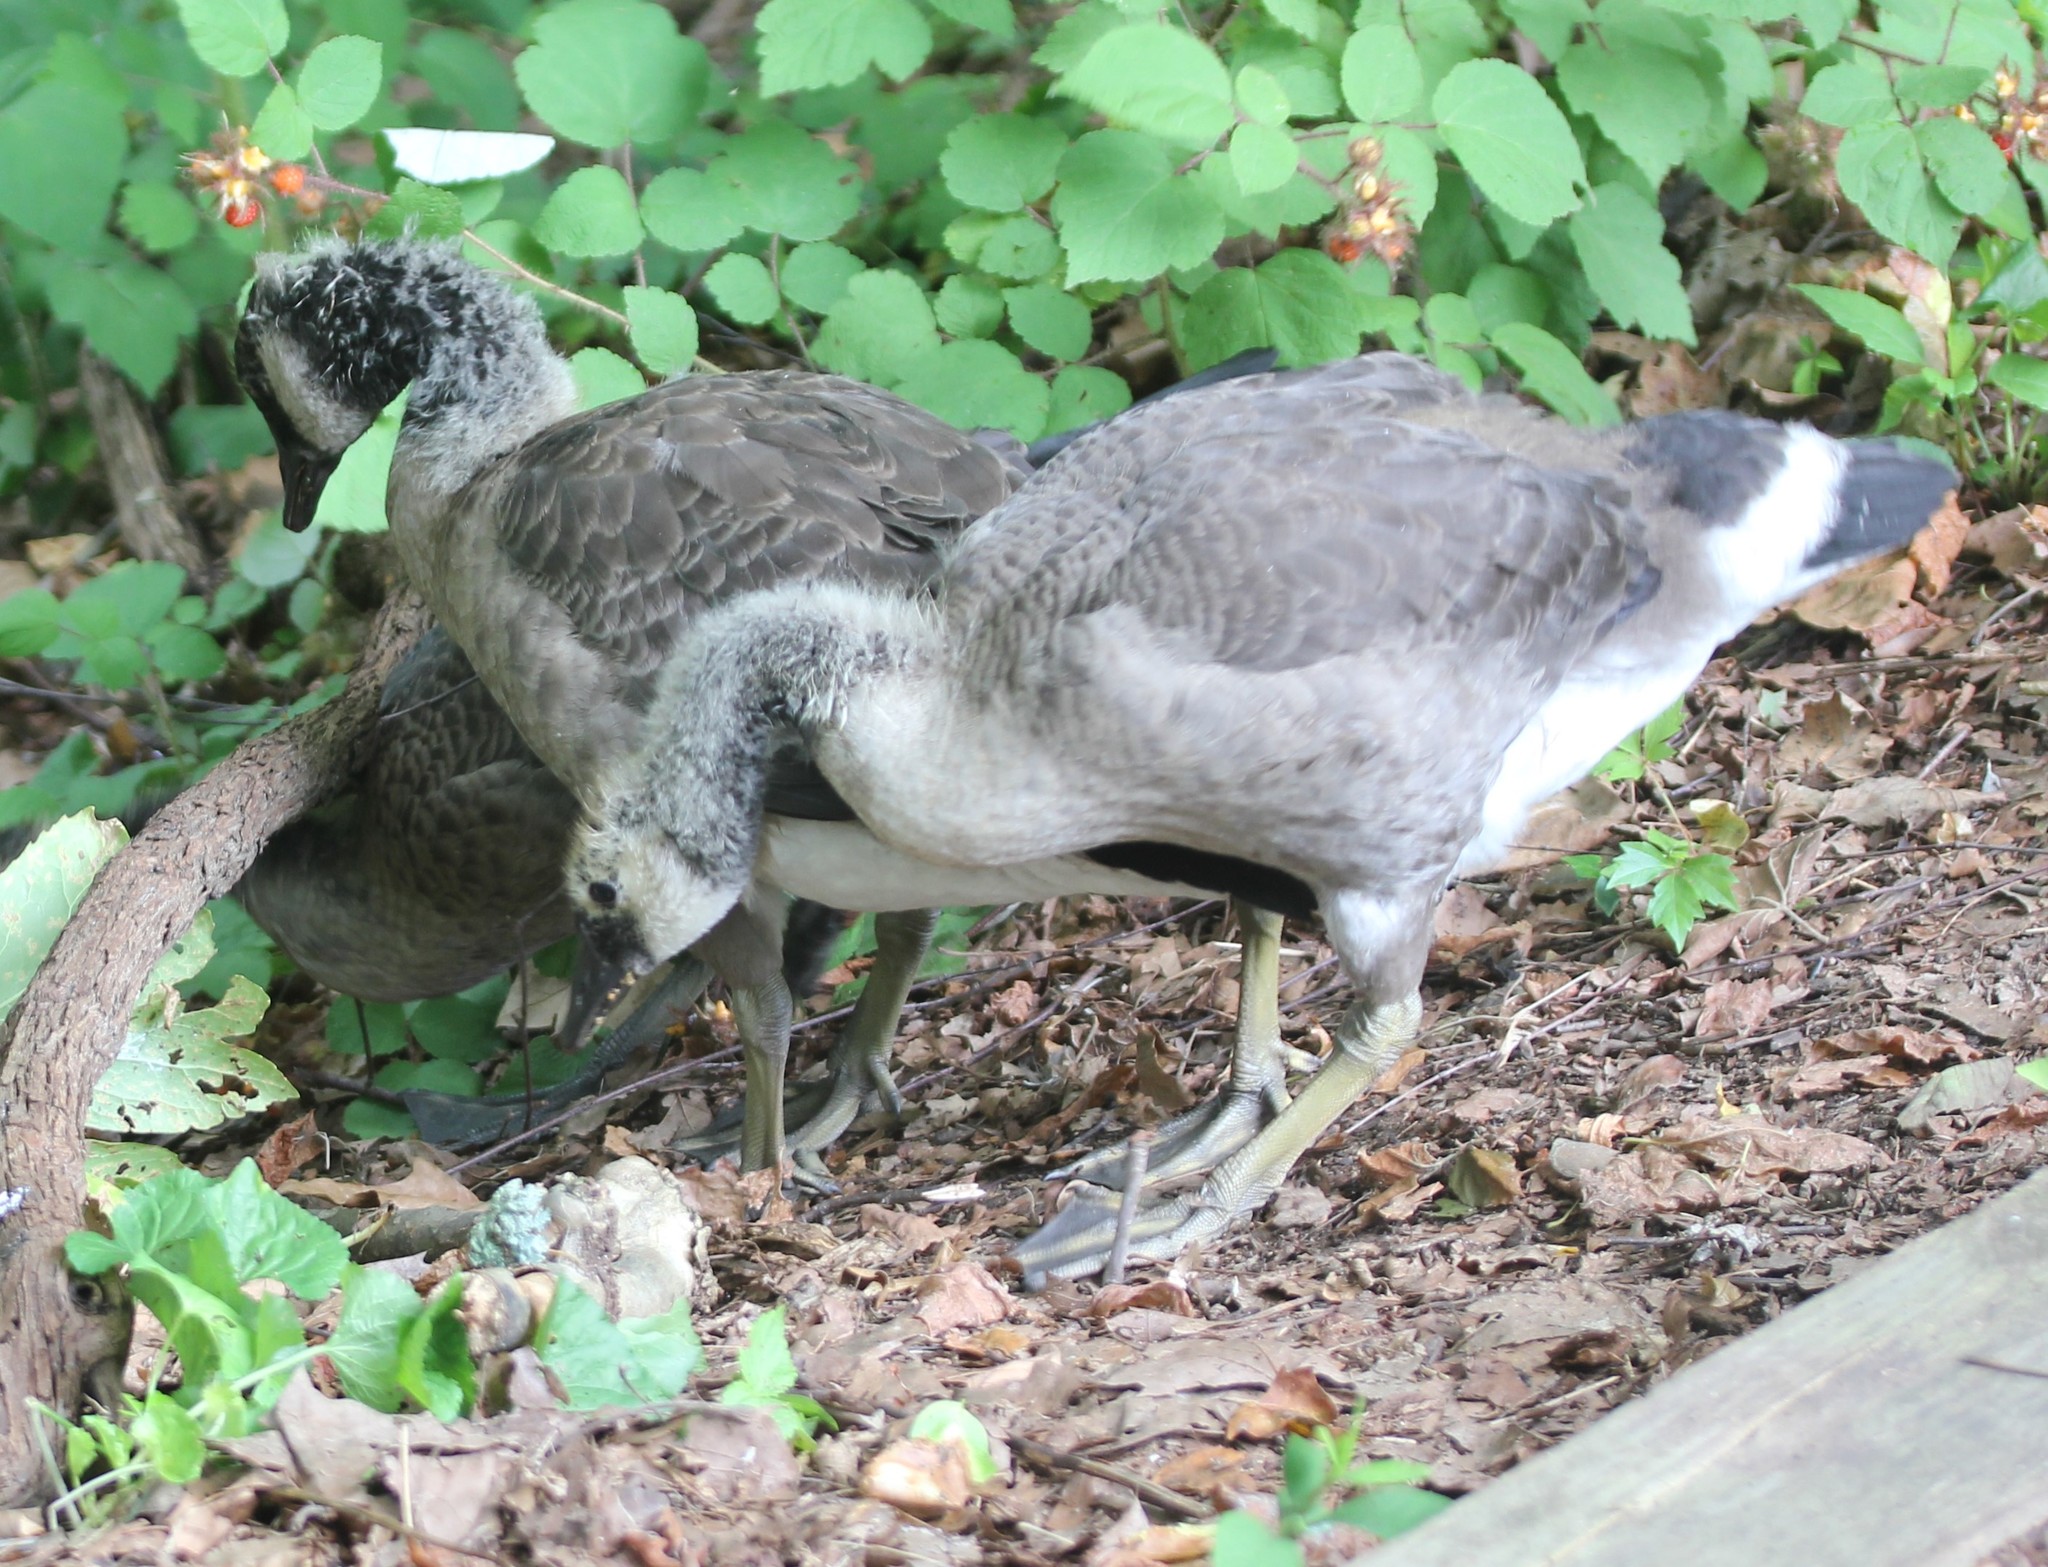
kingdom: Animalia
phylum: Chordata
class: Aves
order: Anseriformes
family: Anatidae
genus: Branta
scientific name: Branta canadensis
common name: Canada goose
